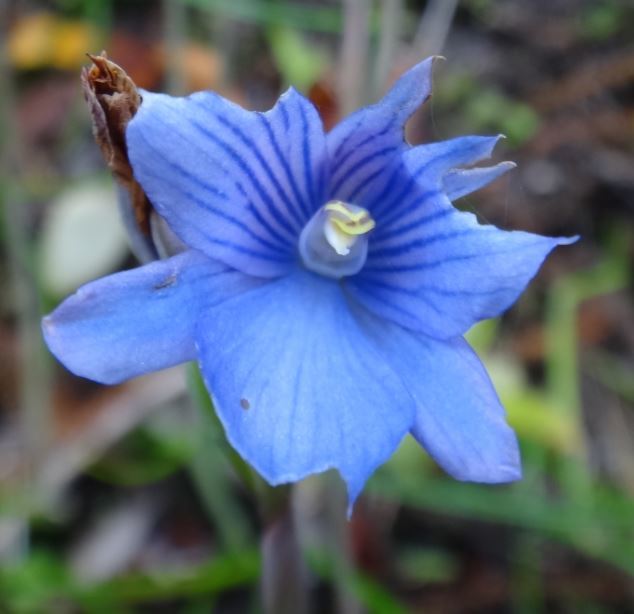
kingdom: Plantae
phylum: Tracheophyta
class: Liliopsida
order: Asparagales
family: Orchidaceae
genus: Thelymitra
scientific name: Thelymitra cyanea
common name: Blue sun-orchid
